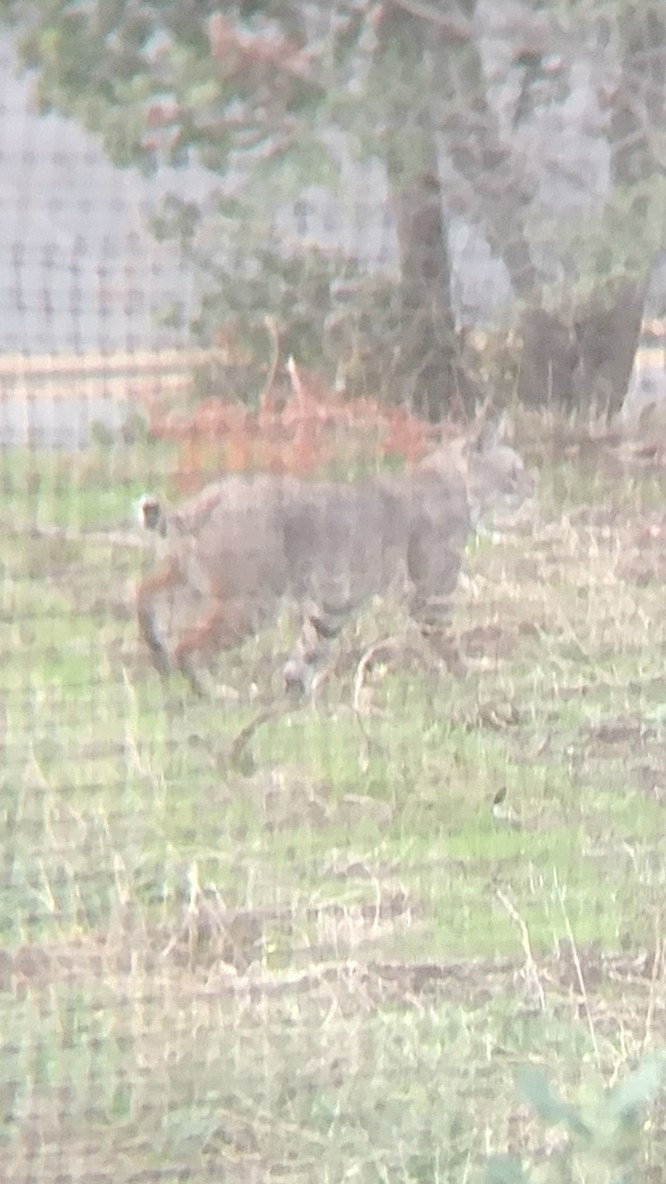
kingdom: Animalia
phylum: Chordata
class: Mammalia
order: Carnivora
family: Felidae
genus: Lynx
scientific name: Lynx rufus
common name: Bobcat
